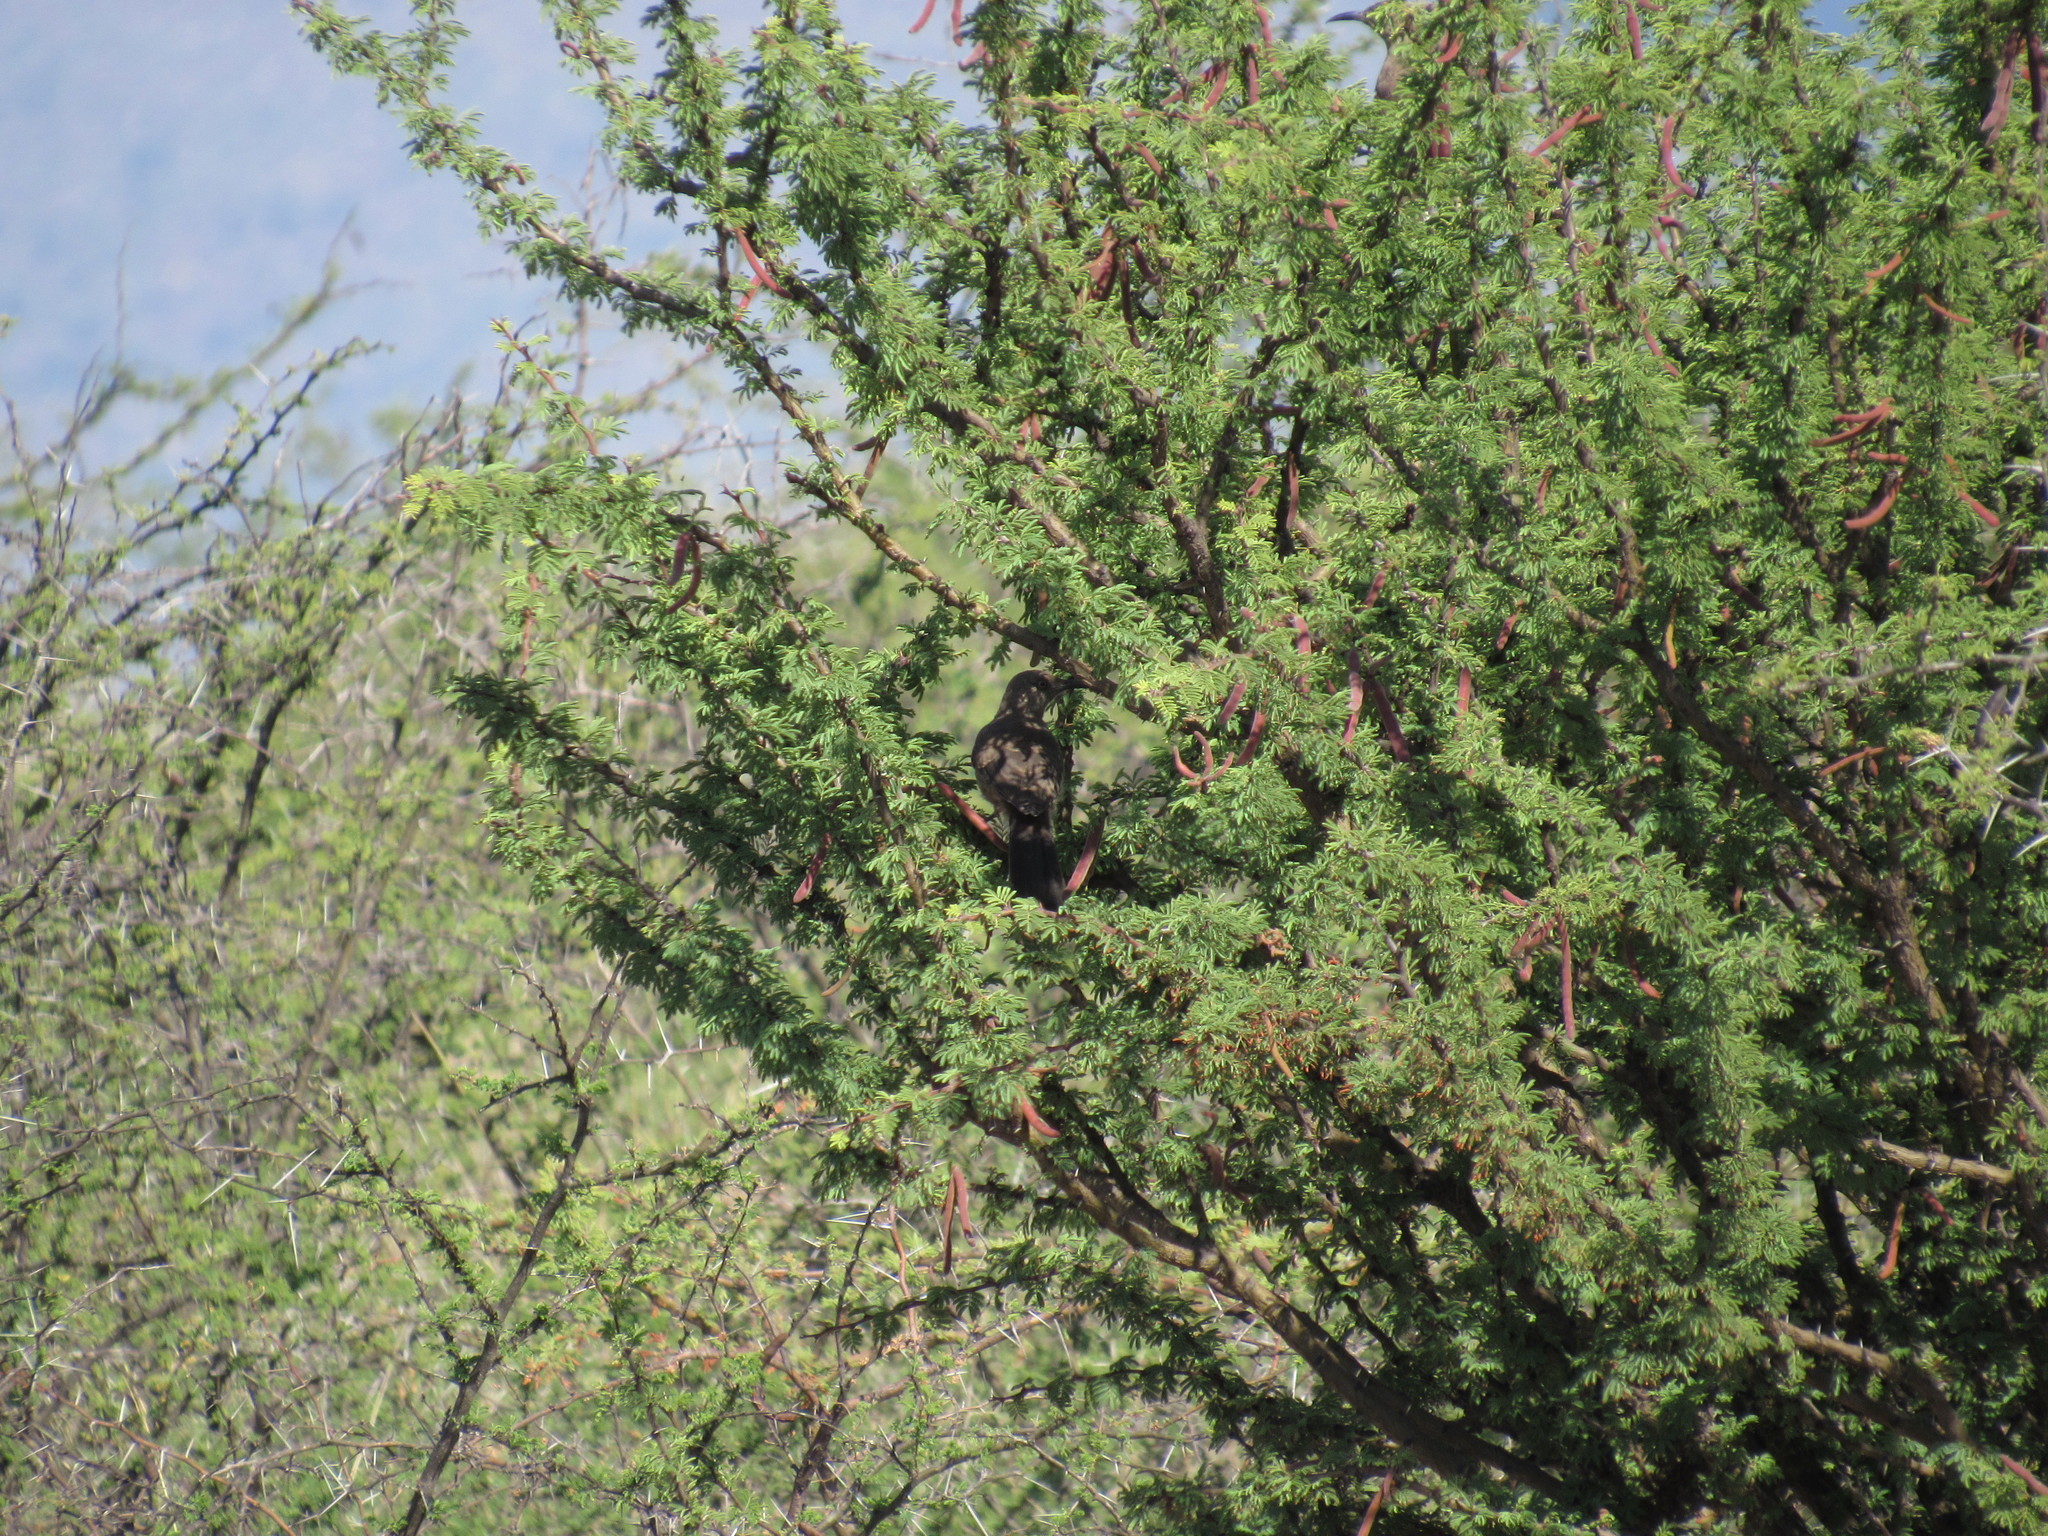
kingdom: Plantae
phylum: Tracheophyta
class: Magnoliopsida
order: Fabales
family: Fabaceae
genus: Vachellia
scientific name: Vachellia schaffneri
